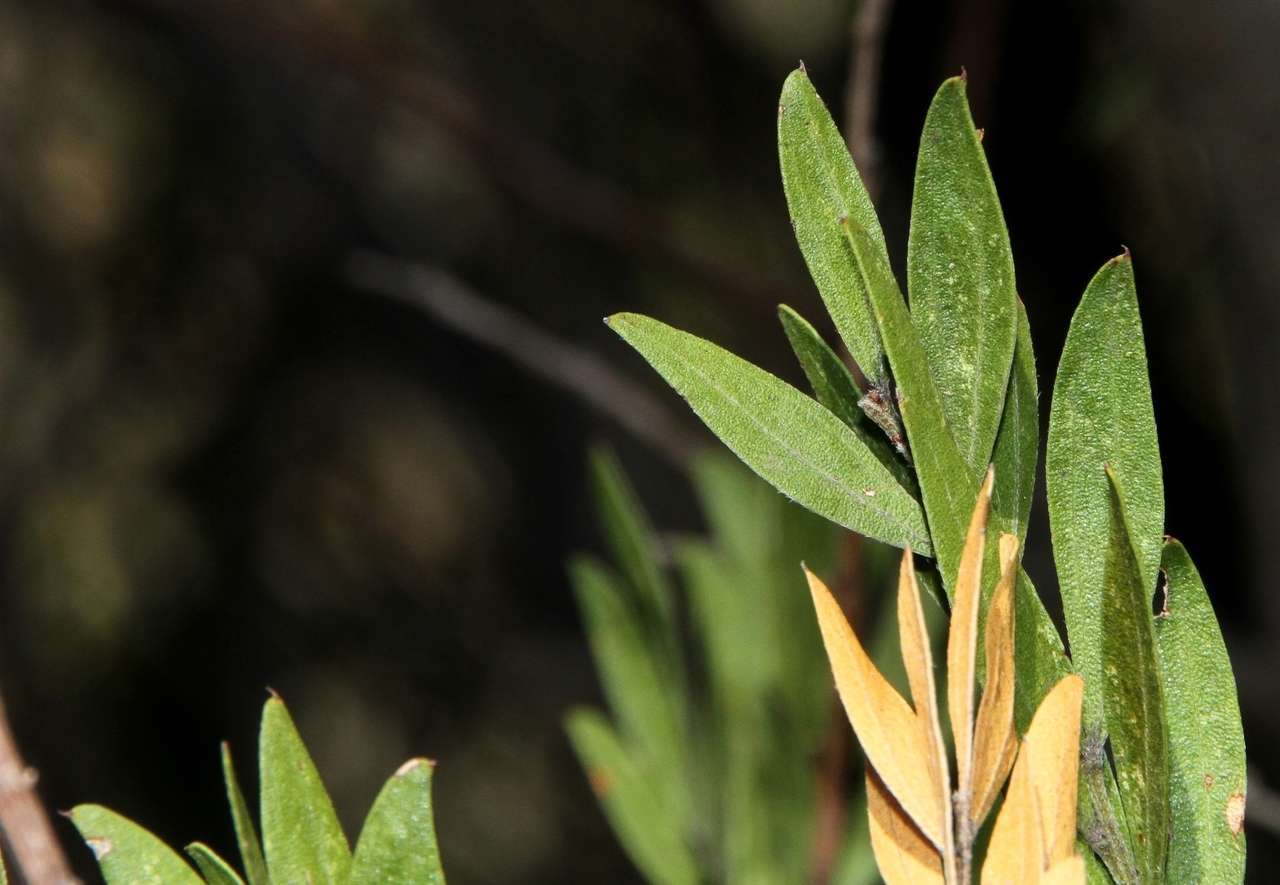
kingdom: Plantae
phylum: Tracheophyta
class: Magnoliopsida
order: Fabales
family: Fabaceae
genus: Acacia
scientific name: Acacia rostriformis
